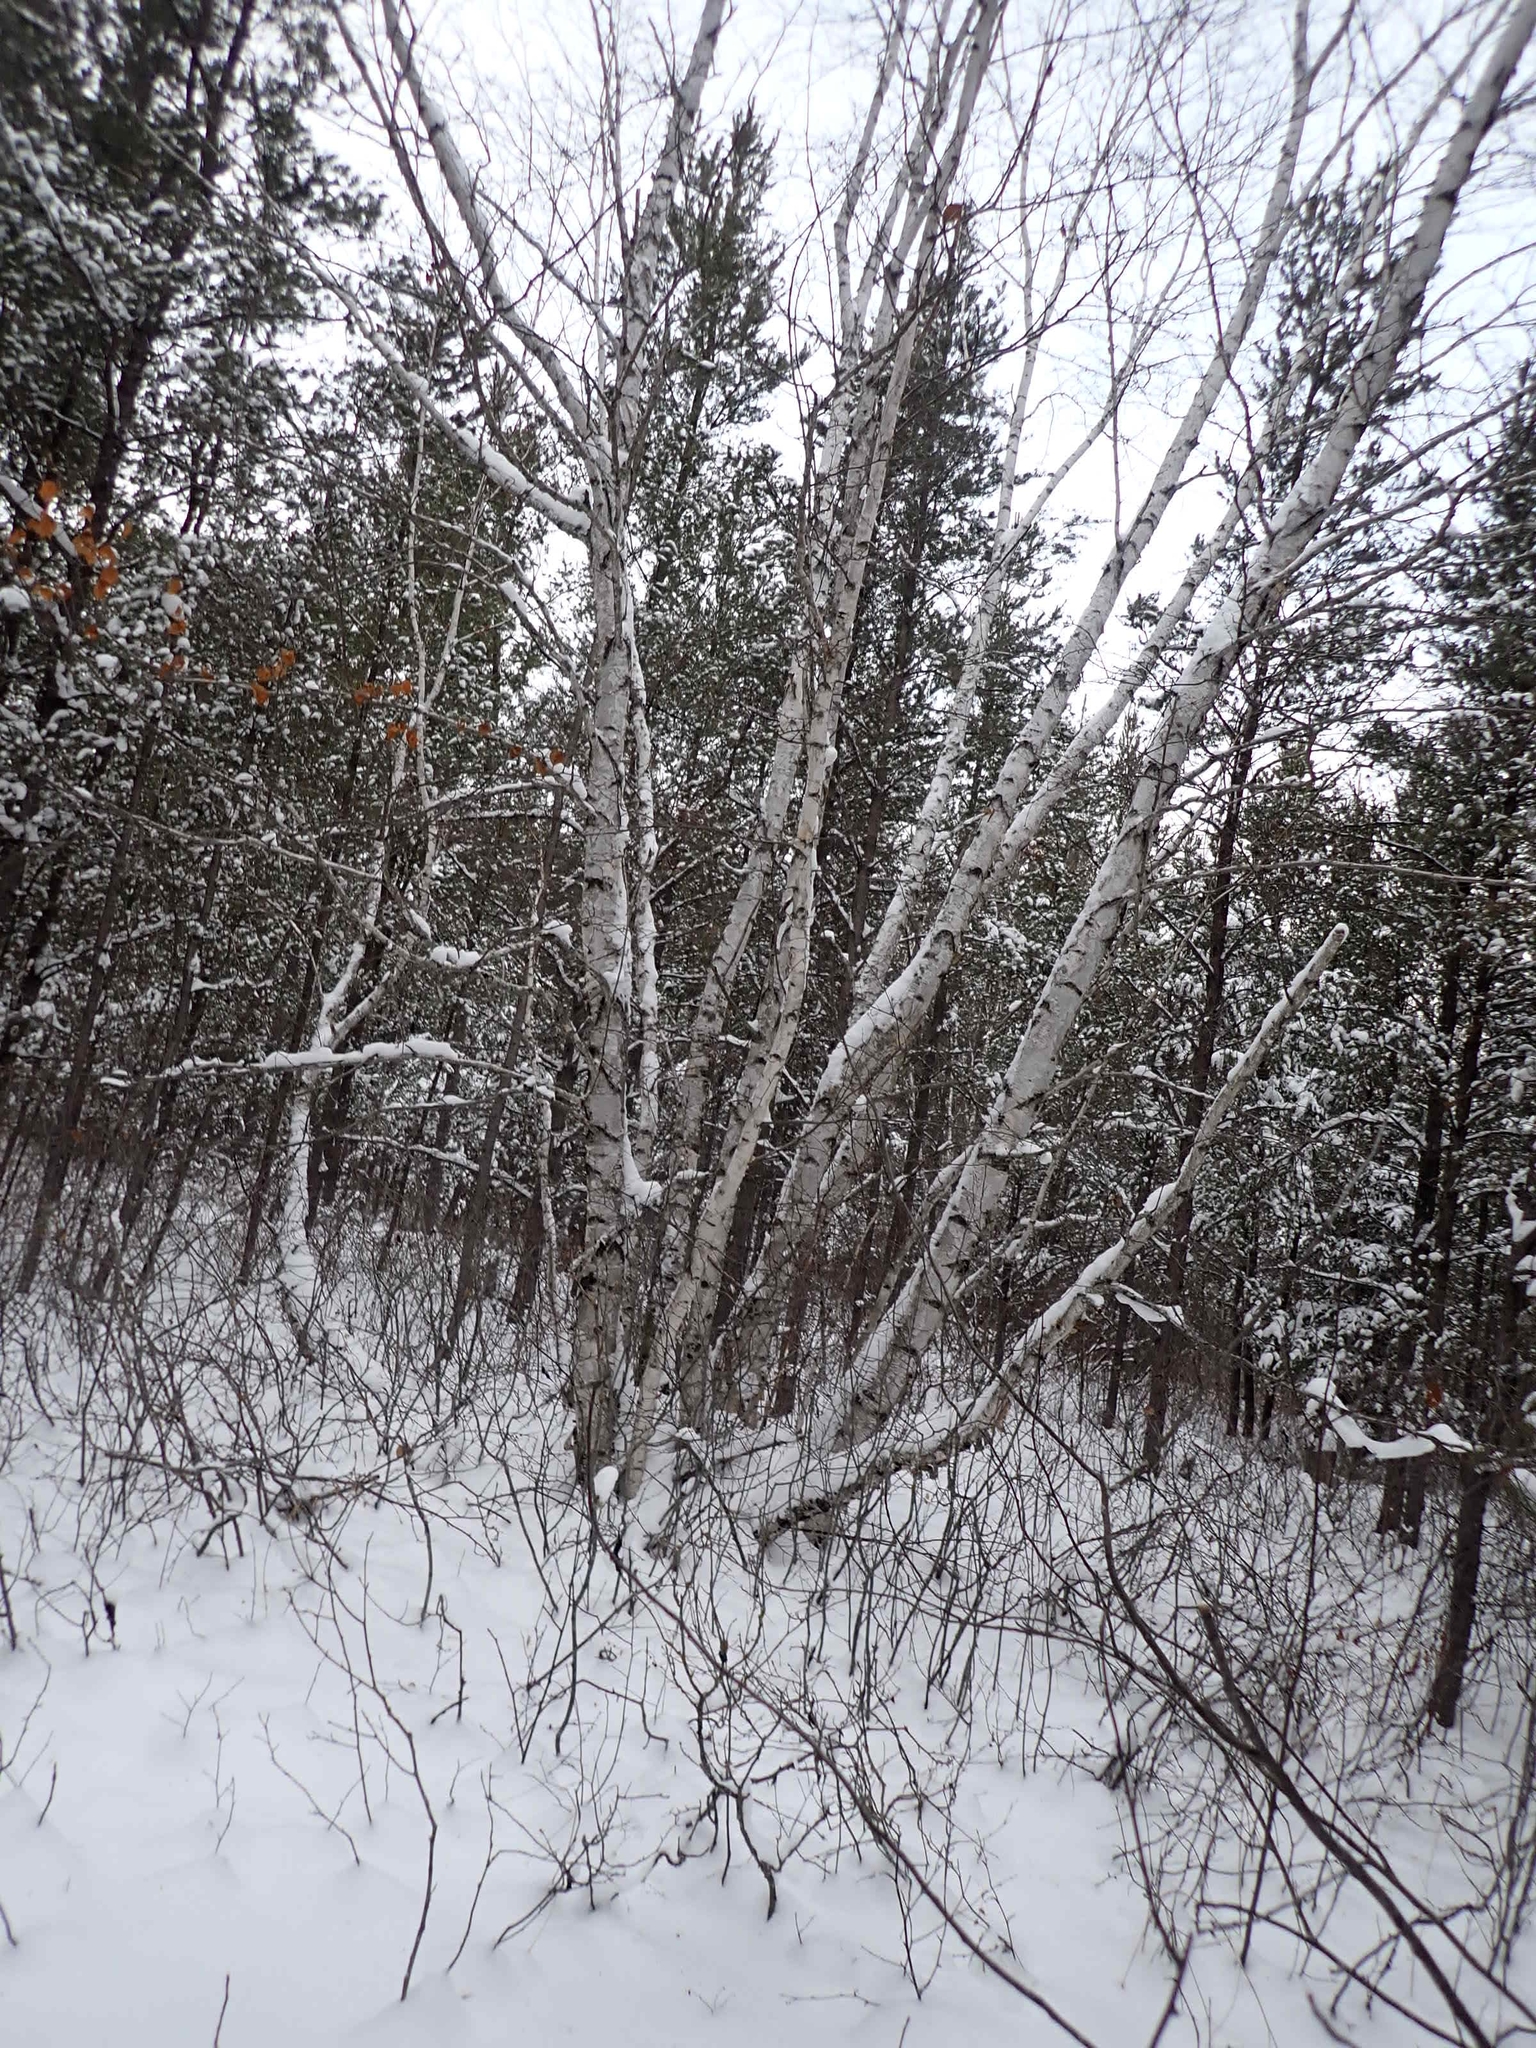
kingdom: Plantae
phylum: Tracheophyta
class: Magnoliopsida
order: Fagales
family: Betulaceae
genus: Betula
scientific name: Betula papyrifera
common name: Paper birch
